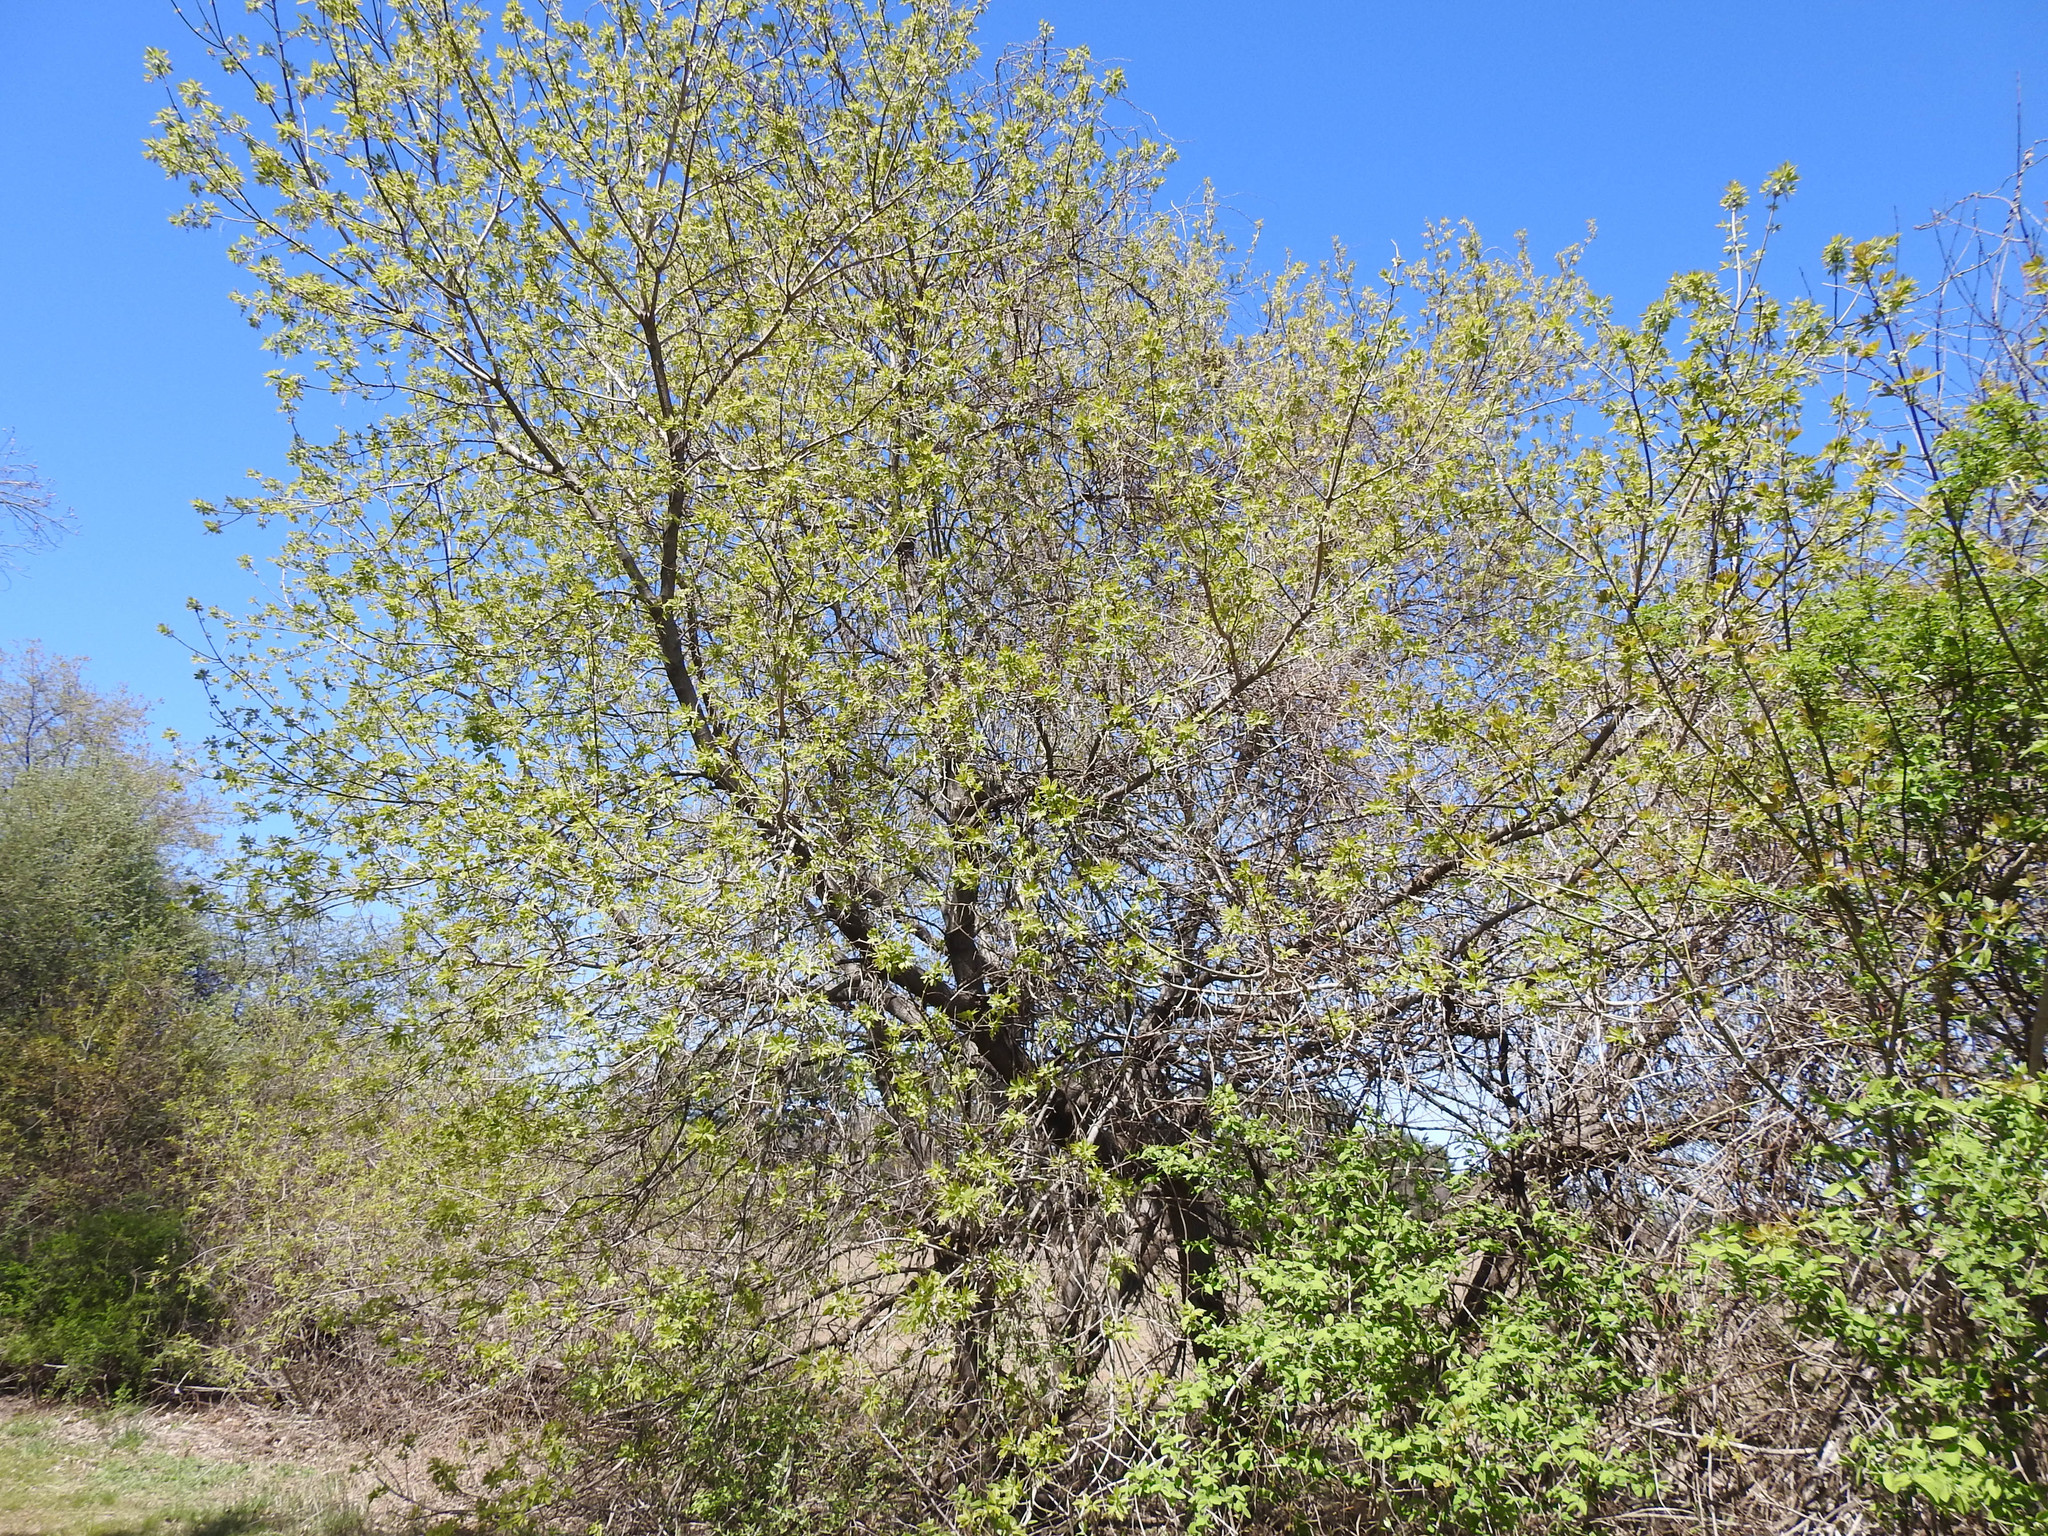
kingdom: Plantae
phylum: Tracheophyta
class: Magnoliopsida
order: Sapindales
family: Sapindaceae
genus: Acer
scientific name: Acer negundo
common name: Ashleaf maple
